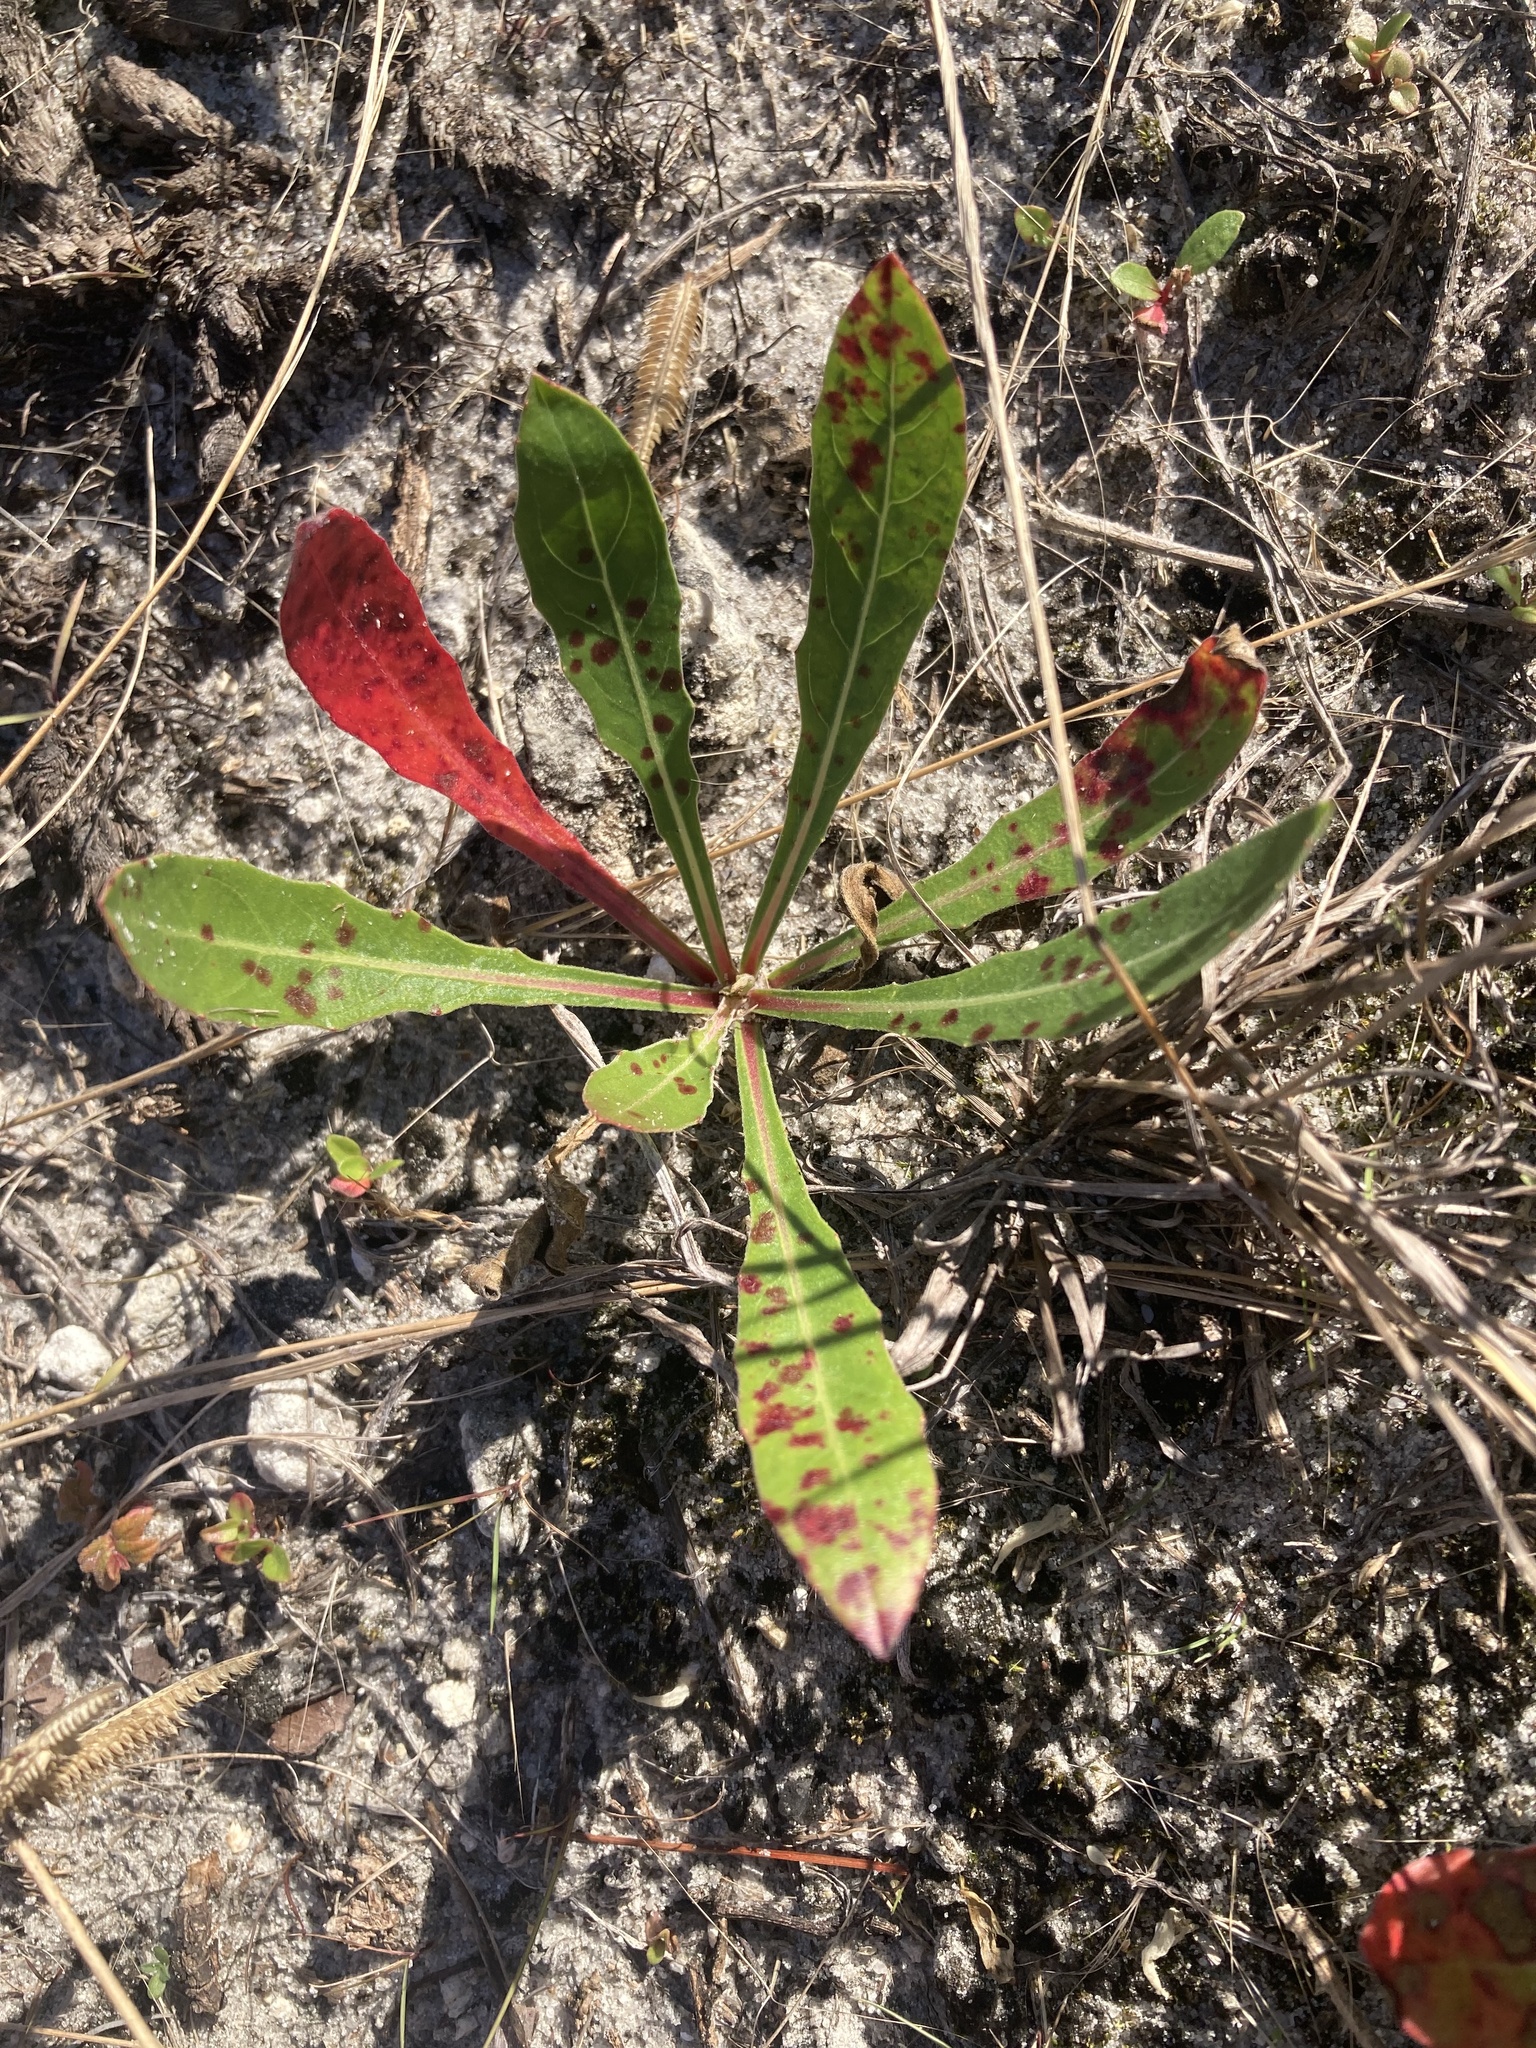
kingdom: Plantae
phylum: Tracheophyta
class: Magnoliopsida
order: Myrtales
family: Onagraceae
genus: Oenothera
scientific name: Oenothera simulans
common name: Southern beeblossom
